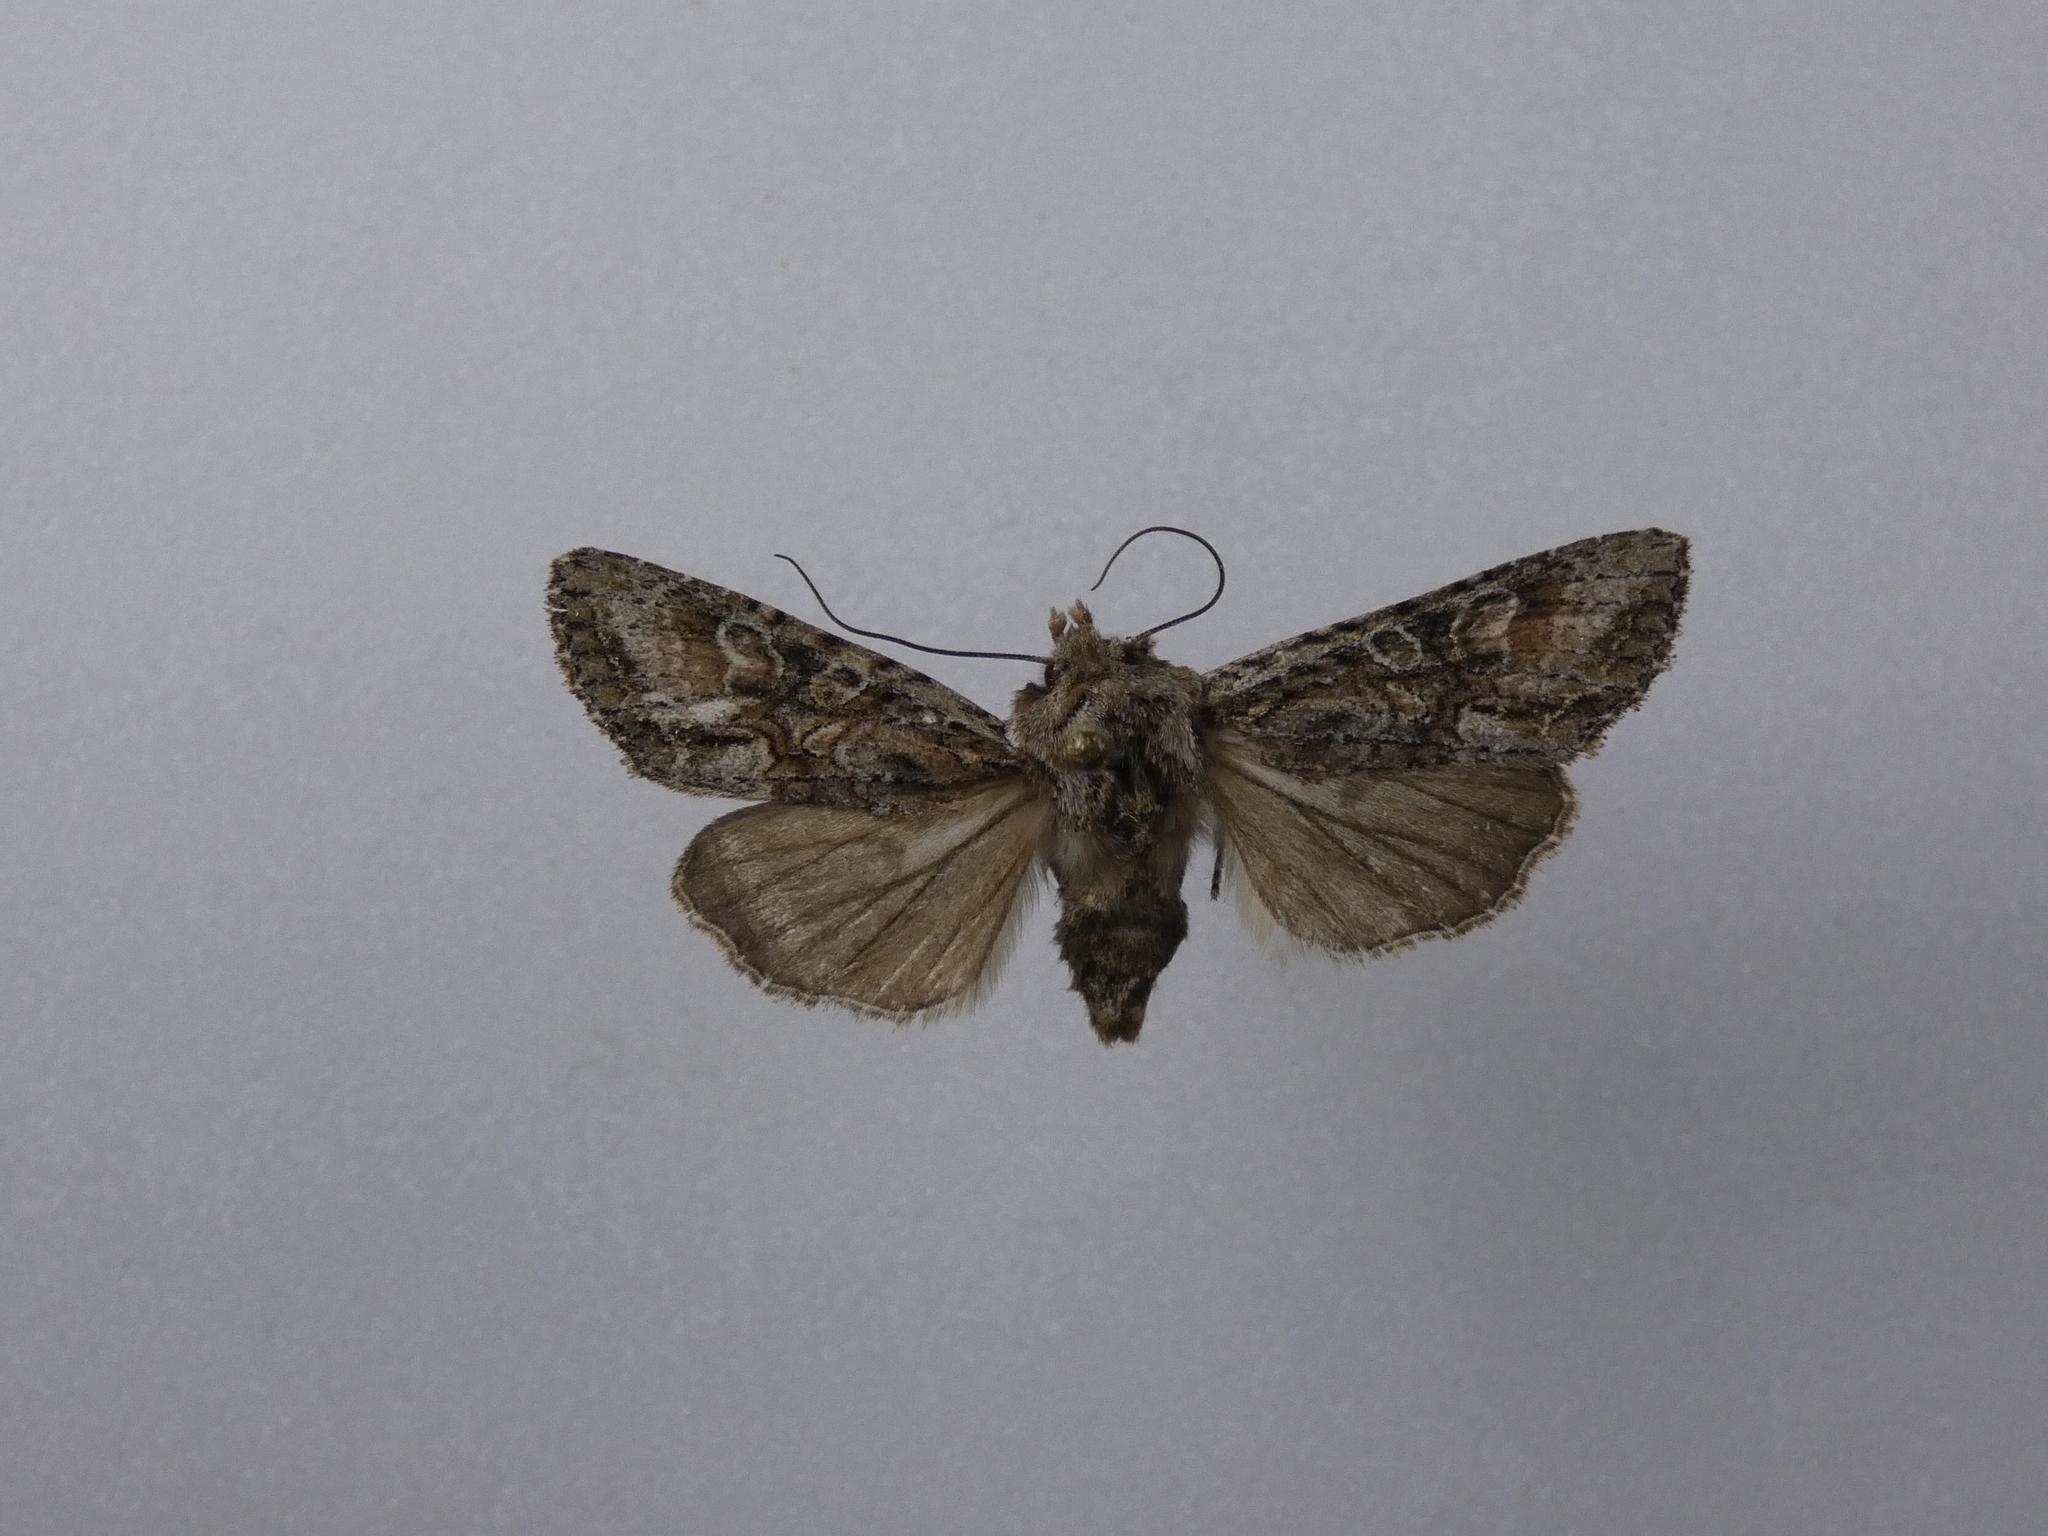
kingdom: Animalia
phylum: Arthropoda
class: Insecta
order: Lepidoptera
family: Noctuidae
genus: Ichneutica
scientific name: Ichneutica mutans
